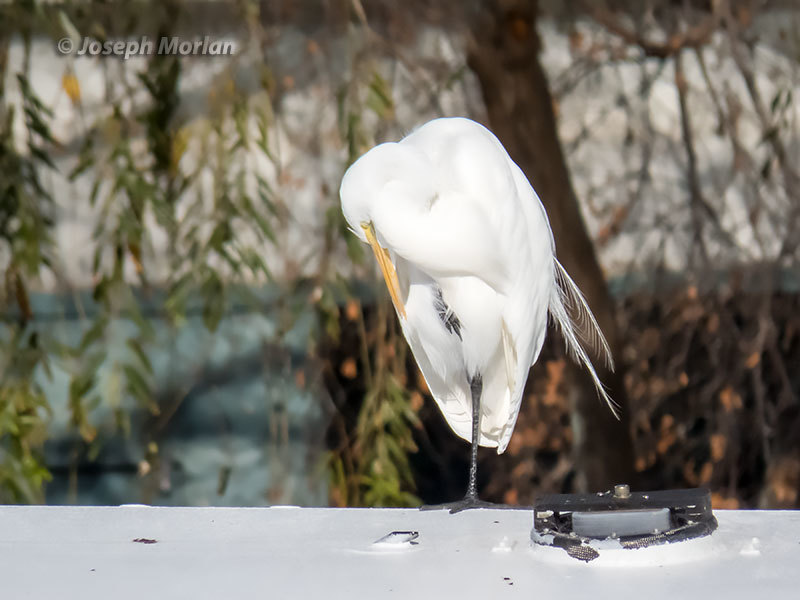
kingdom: Animalia
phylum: Chordata
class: Aves
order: Pelecaniformes
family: Ardeidae
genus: Ardea
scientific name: Ardea alba
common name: Great egret
